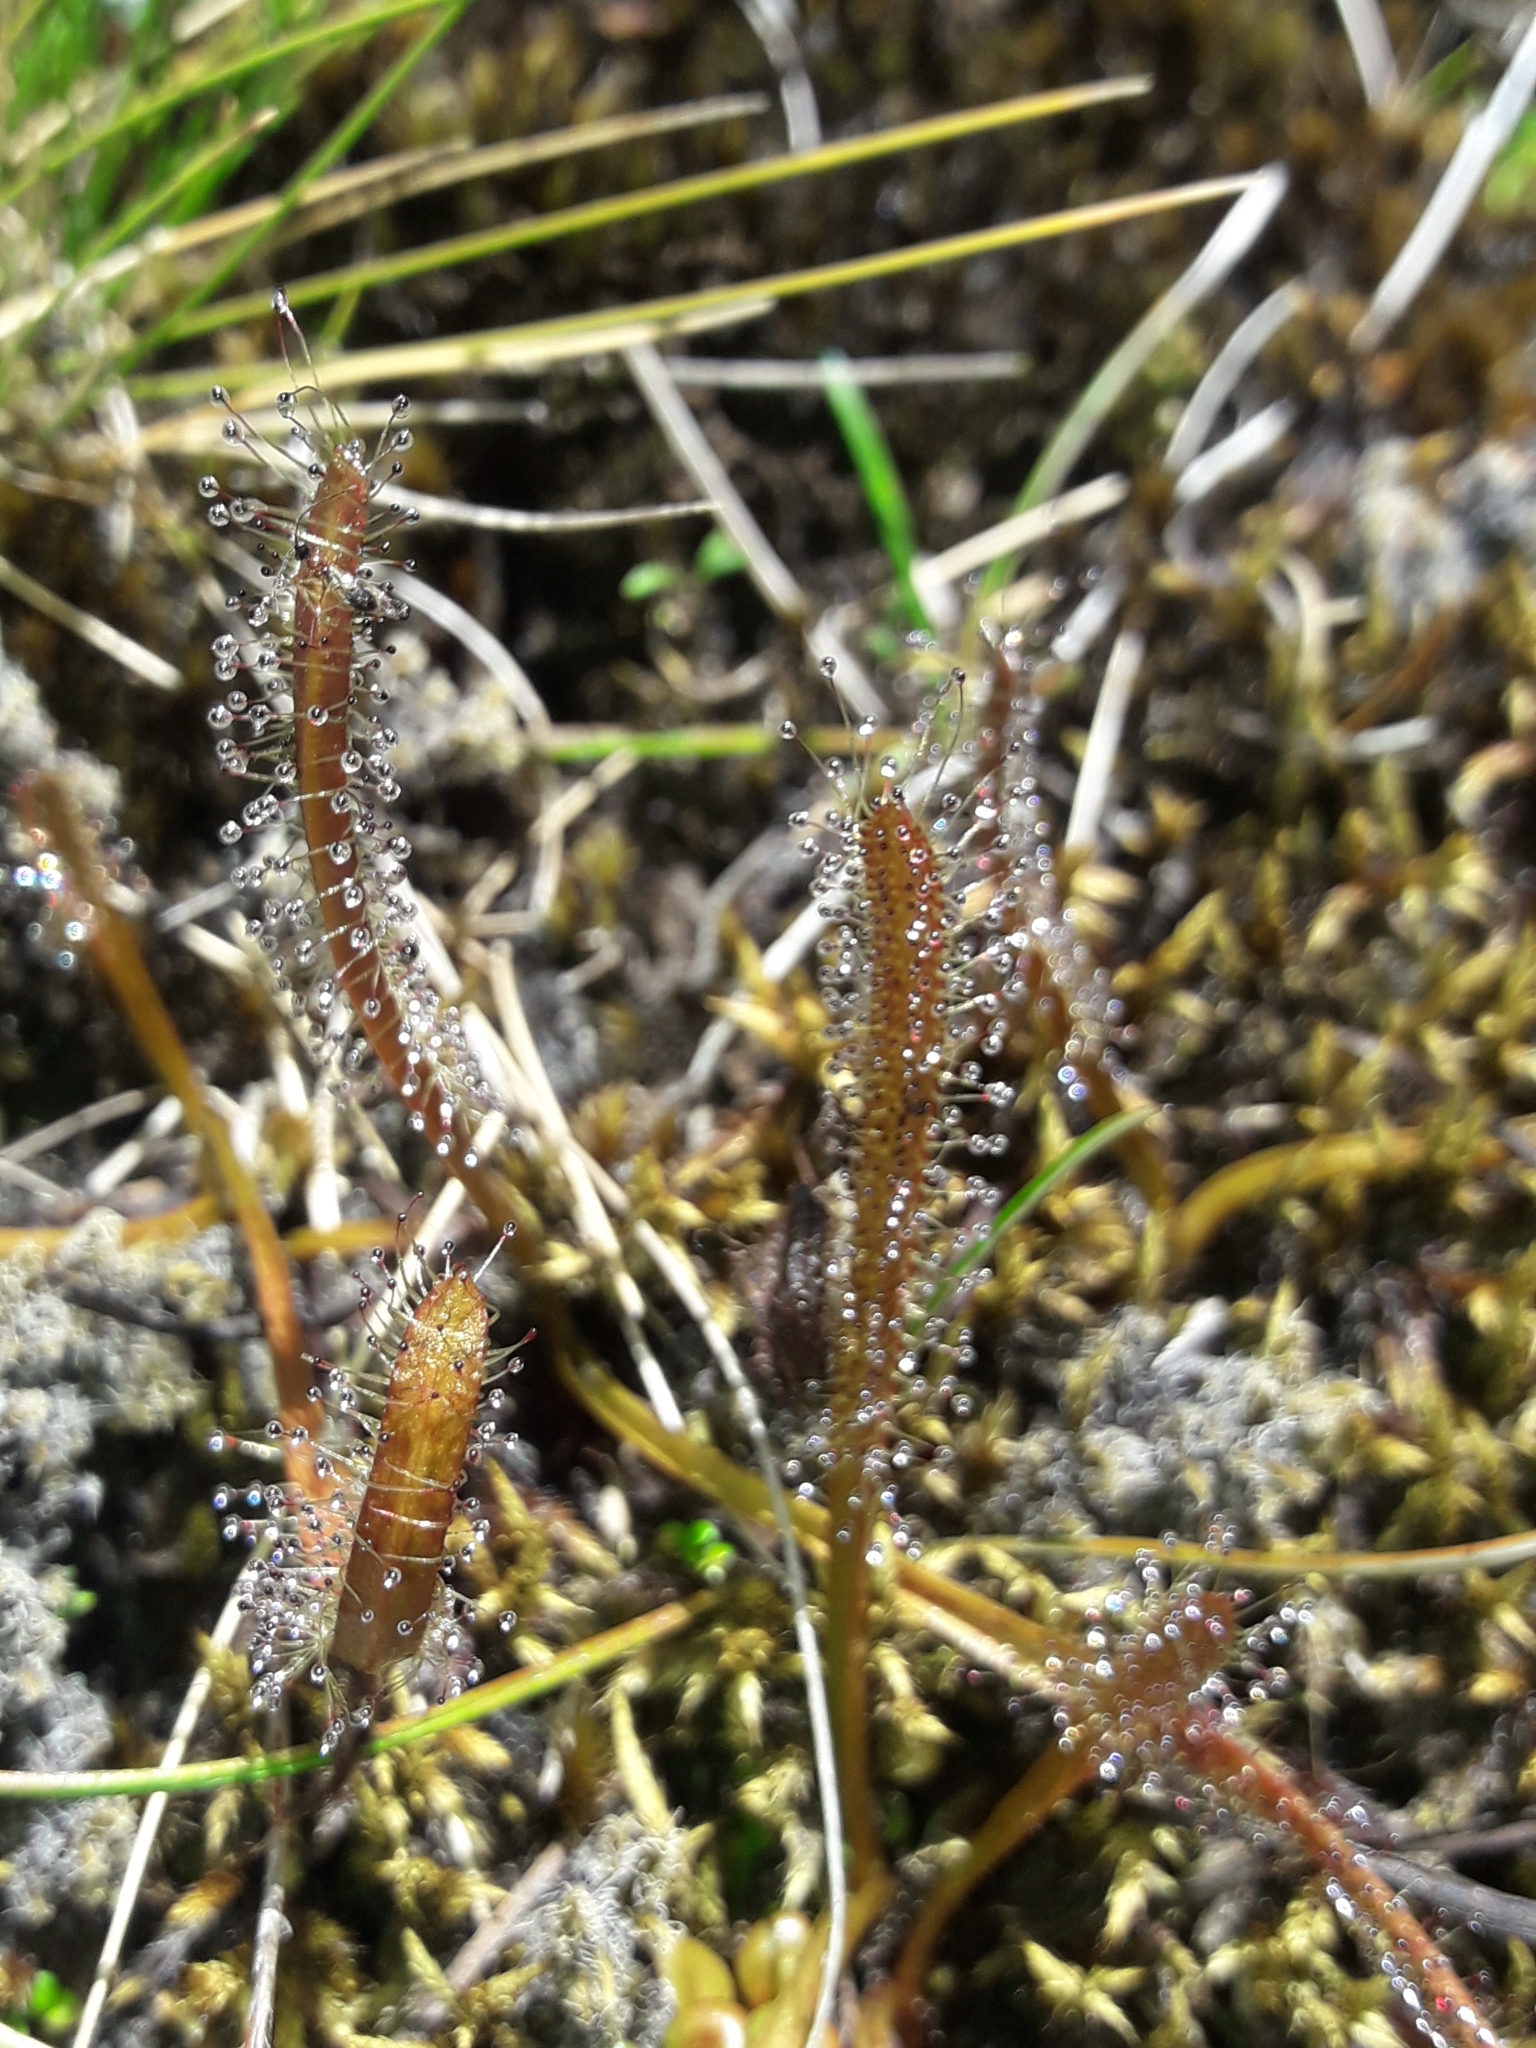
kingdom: Plantae
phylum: Tracheophyta
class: Magnoliopsida
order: Caryophyllales
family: Droseraceae
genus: Drosera
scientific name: Drosera arcturi
